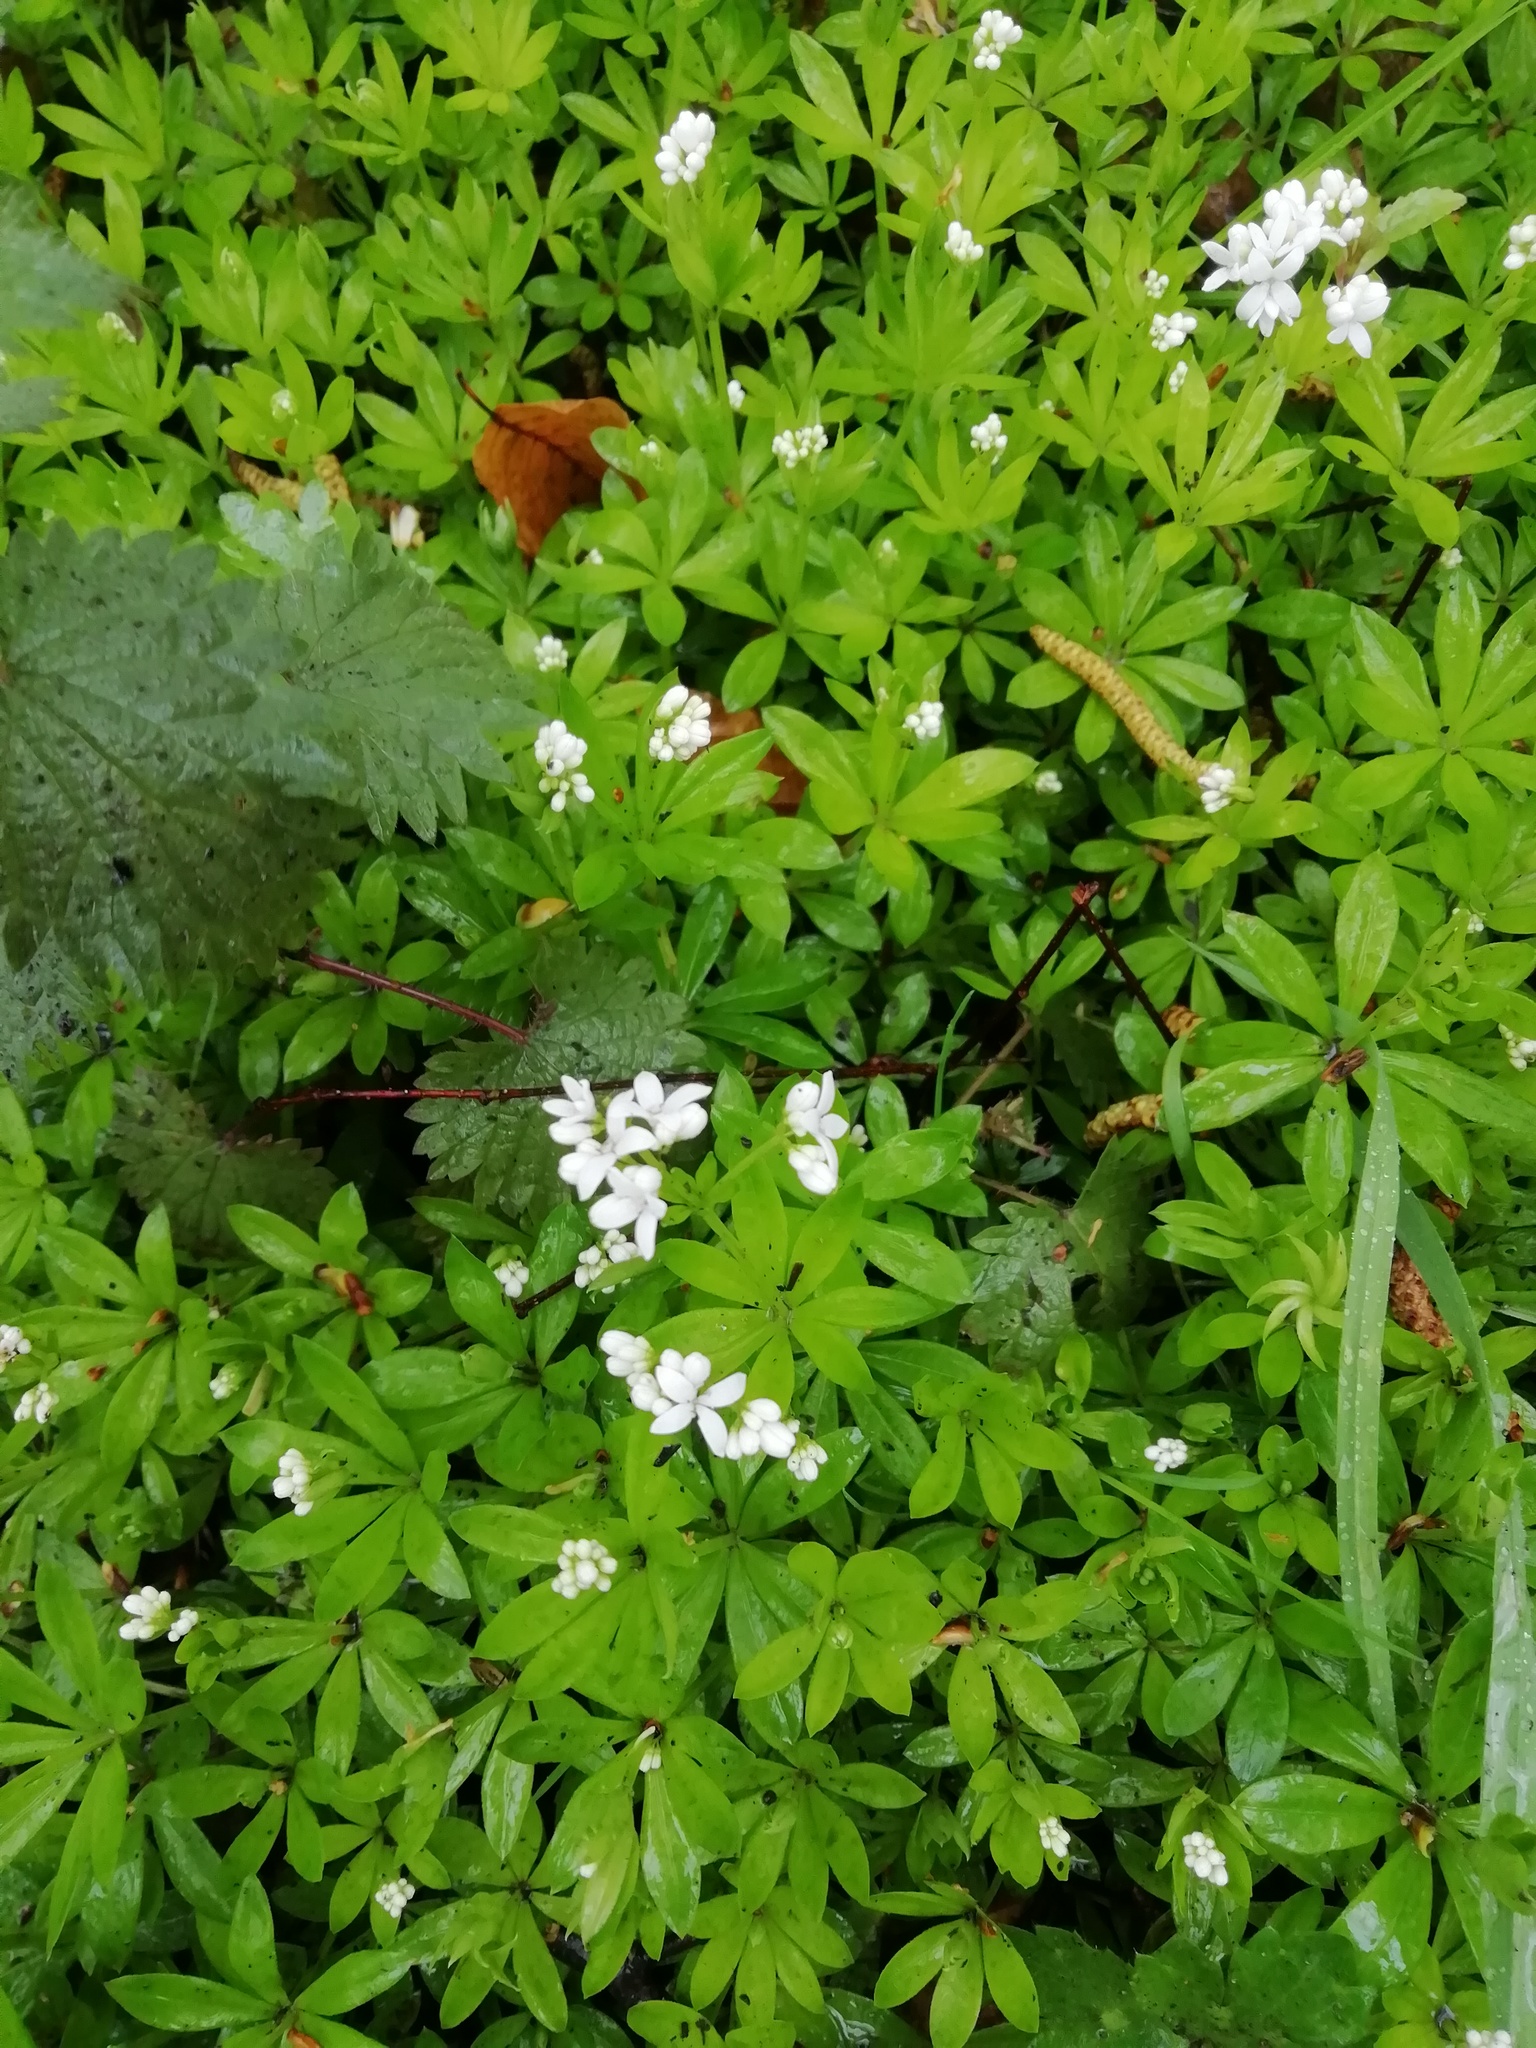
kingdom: Plantae
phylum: Tracheophyta
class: Magnoliopsida
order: Gentianales
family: Rubiaceae
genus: Galium
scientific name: Galium odoratum
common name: Sweet woodruff
